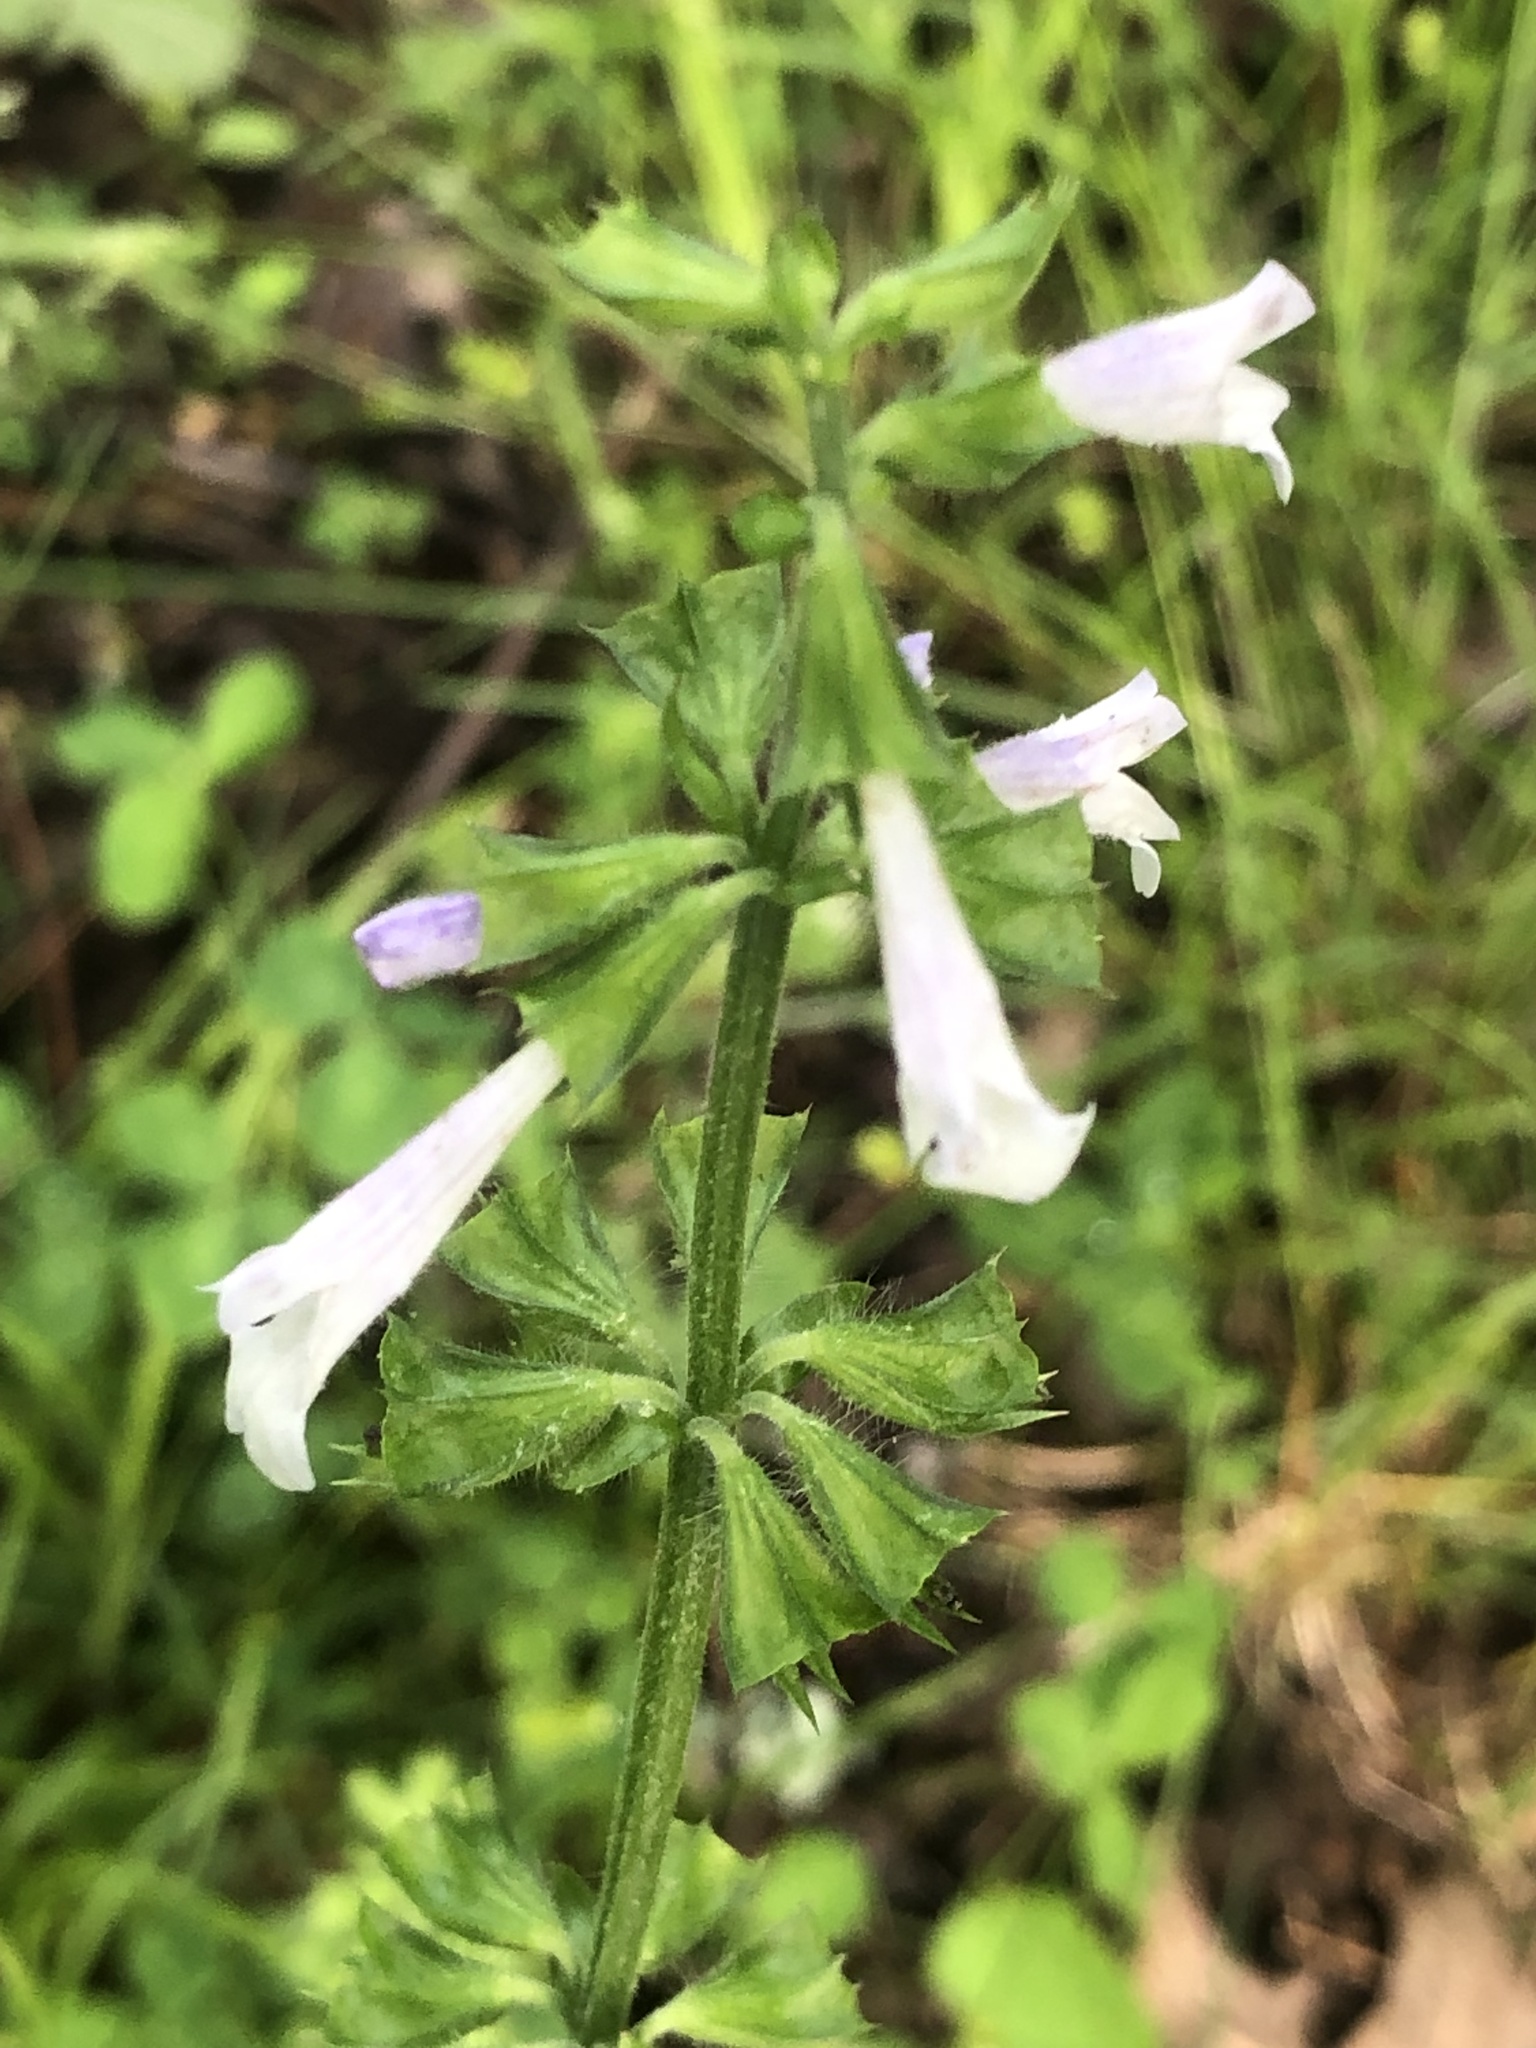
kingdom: Plantae
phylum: Tracheophyta
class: Magnoliopsida
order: Lamiales
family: Lamiaceae
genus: Salvia
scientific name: Salvia lyrata
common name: Cancerweed
